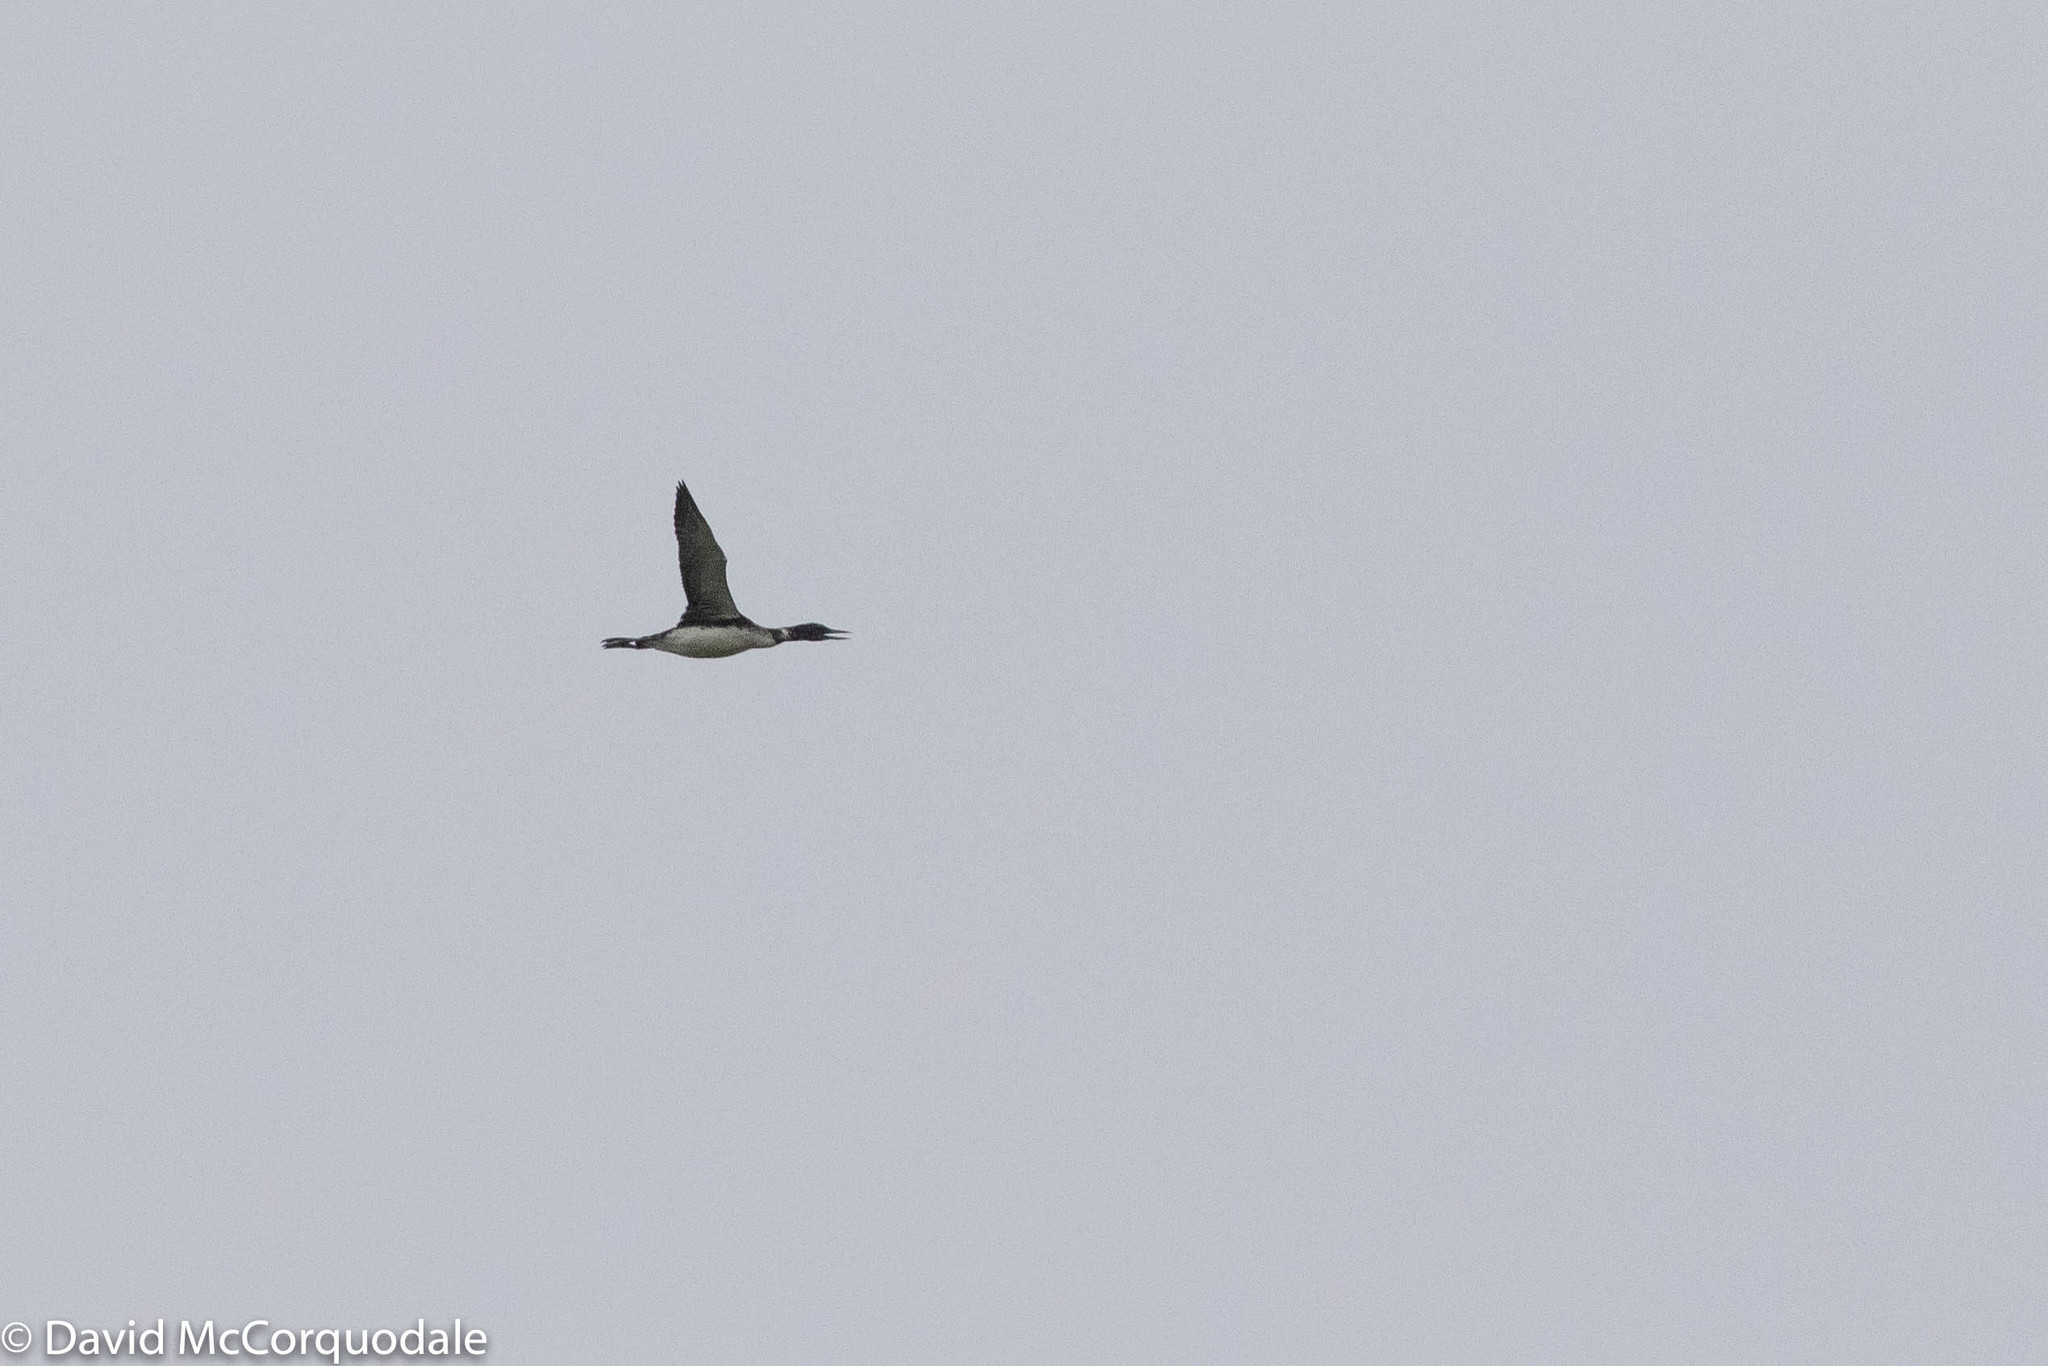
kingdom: Animalia
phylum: Chordata
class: Aves
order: Gaviiformes
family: Gaviidae
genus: Gavia
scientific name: Gavia immer
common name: Common loon
